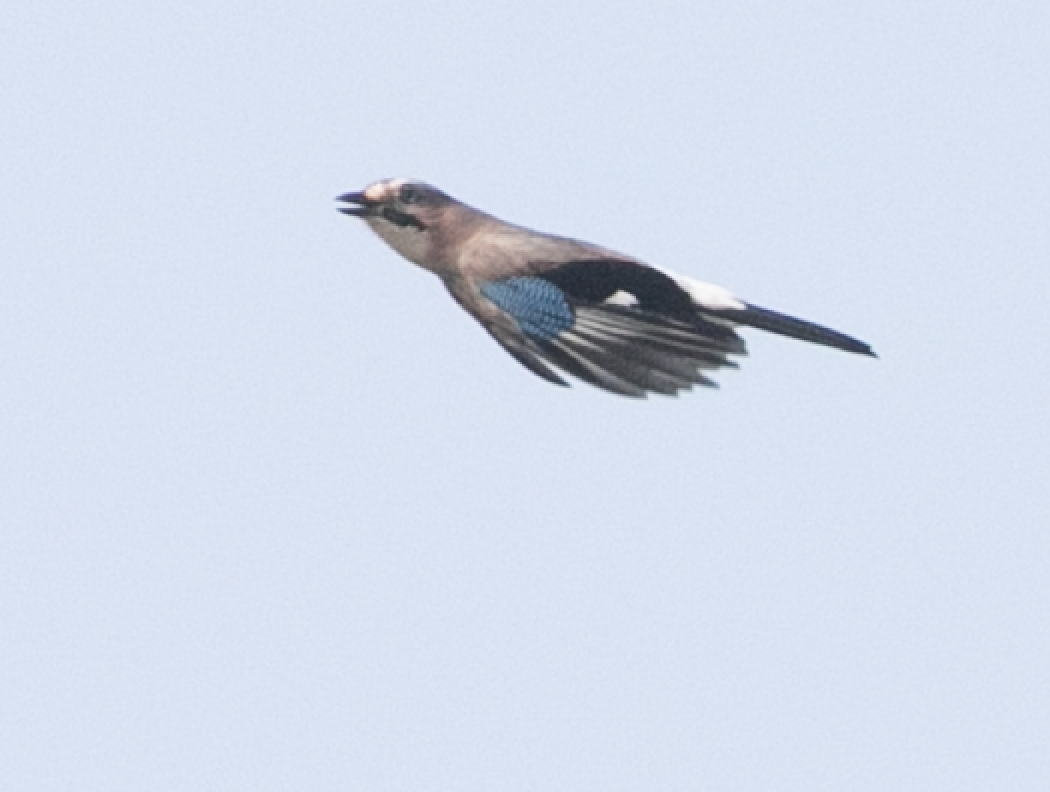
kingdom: Animalia
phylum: Chordata
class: Aves
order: Passeriformes
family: Corvidae
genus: Garrulus
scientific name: Garrulus glandarius
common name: Eurasian jay
